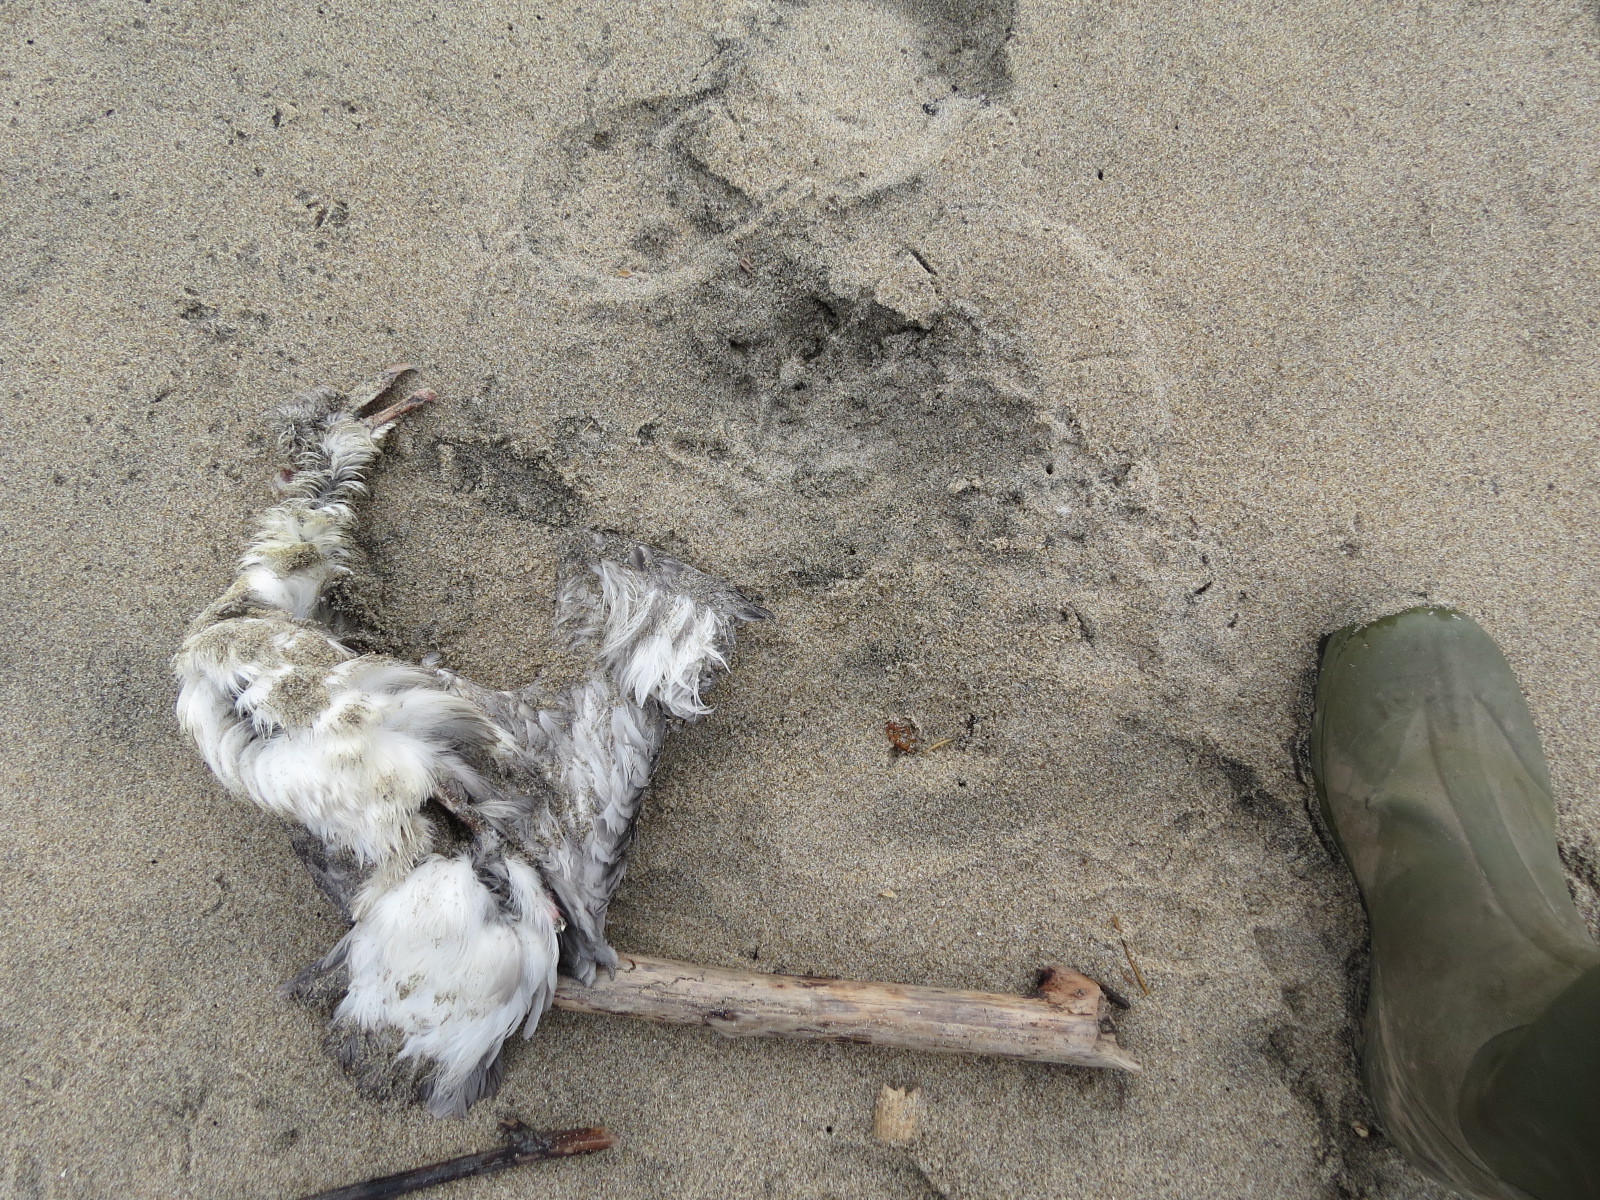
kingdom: Animalia
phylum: Chordata
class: Aves
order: Procellariiformes
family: Procellariidae
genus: Fulmarus
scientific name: Fulmarus glacialis
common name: Northern fulmar
